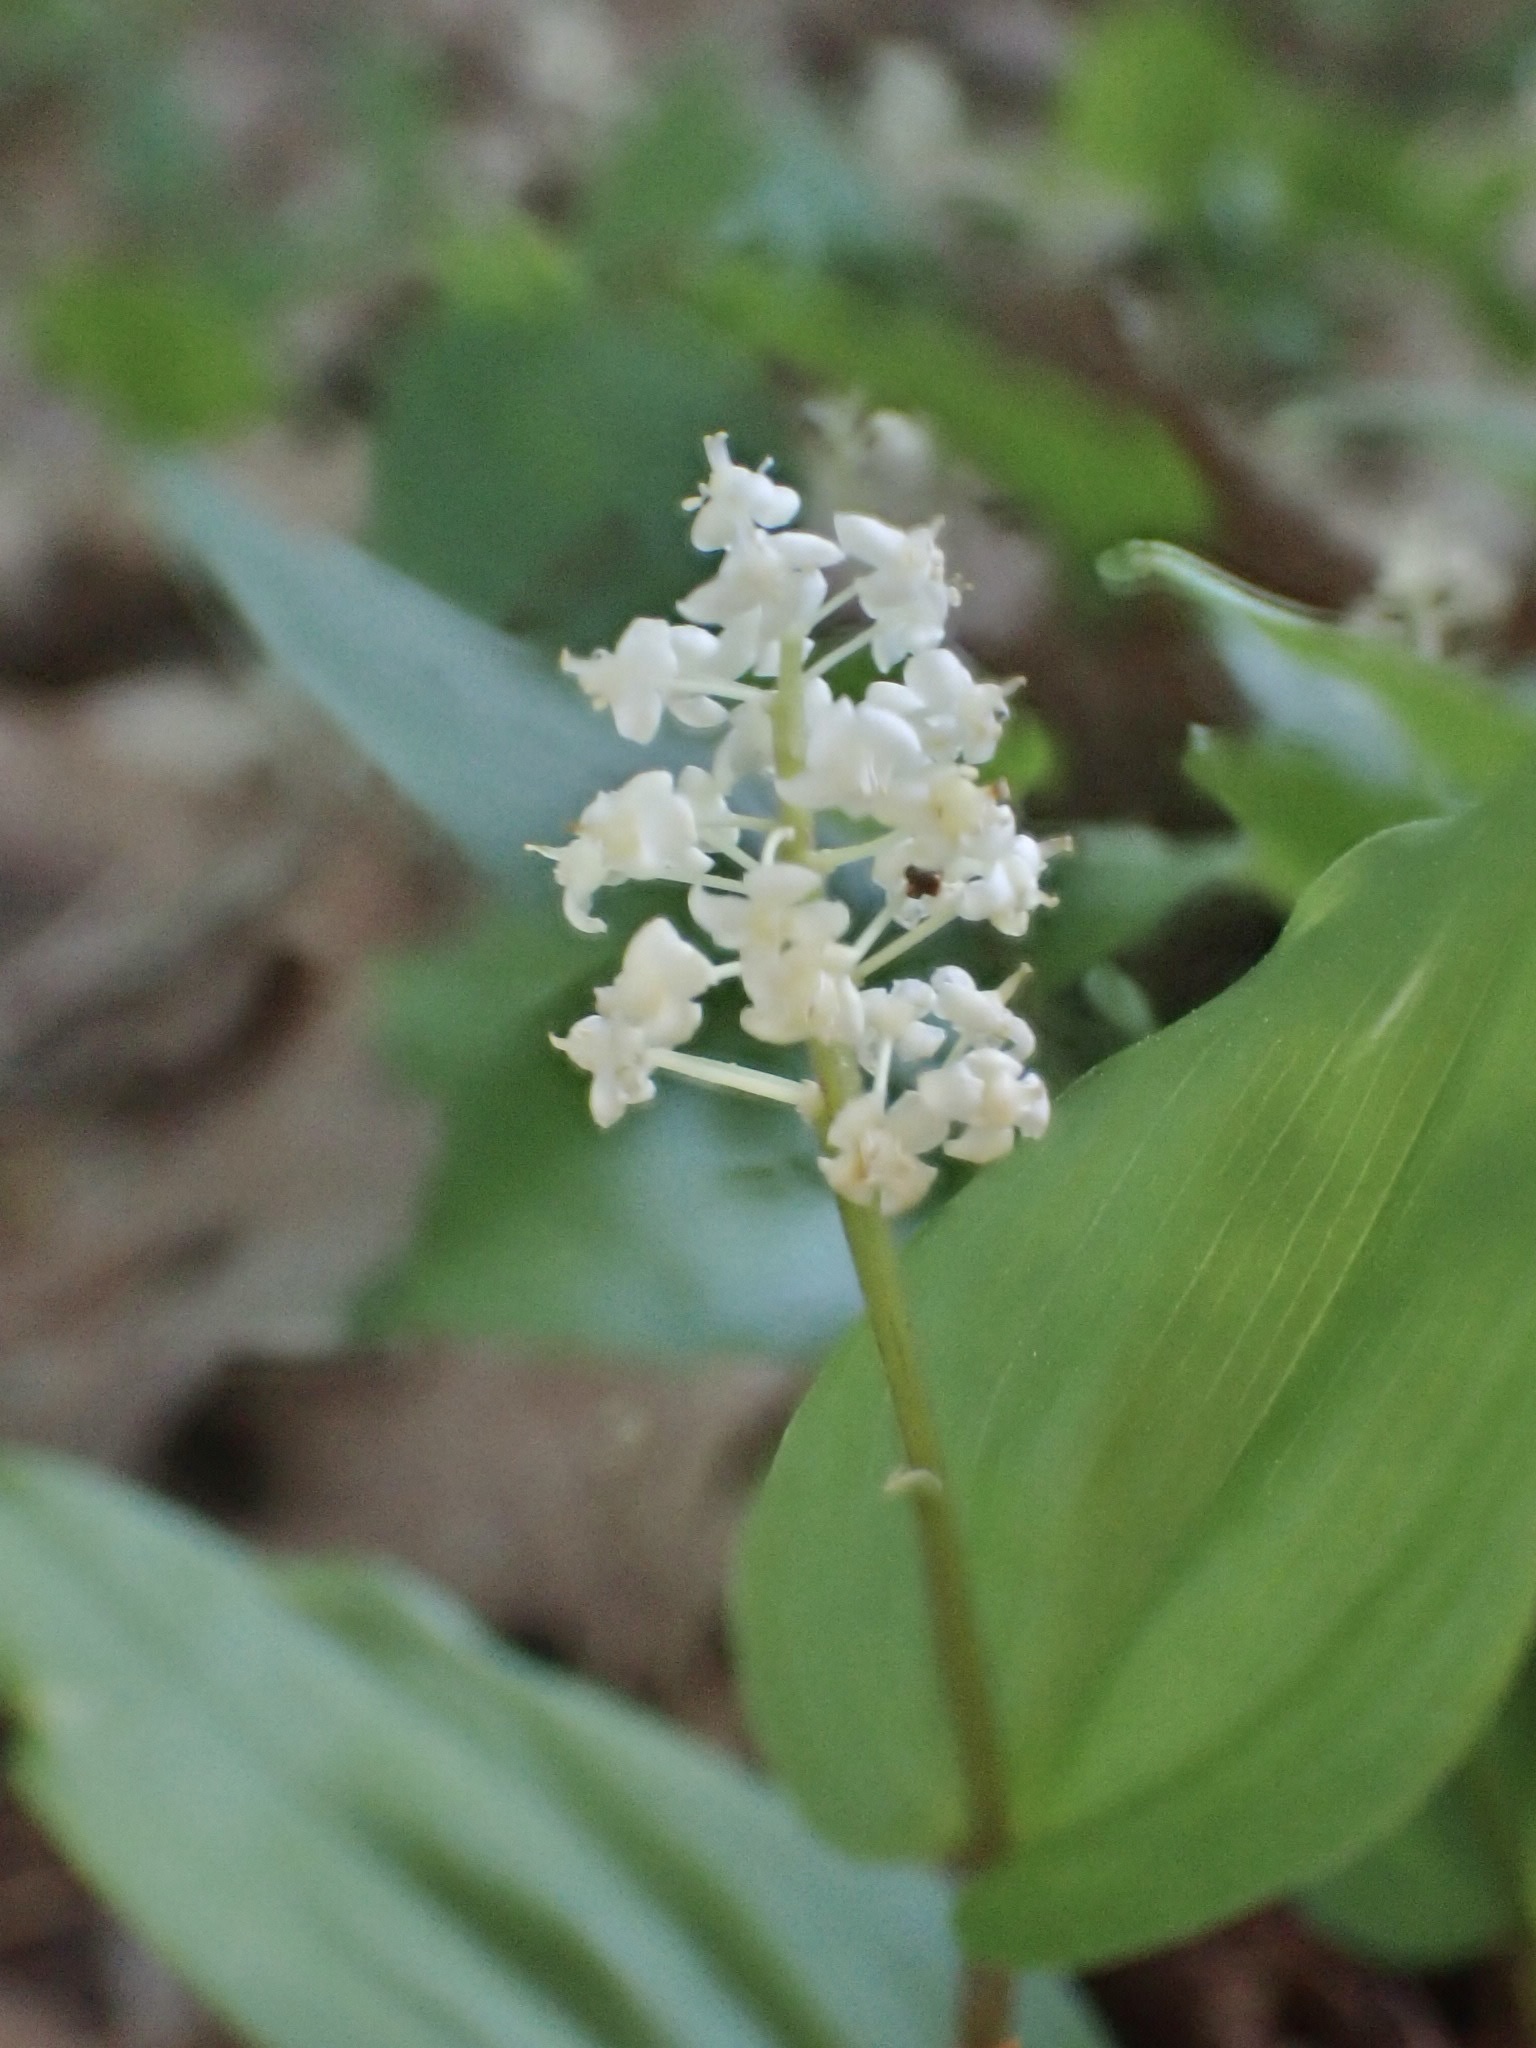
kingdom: Plantae
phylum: Tracheophyta
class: Liliopsida
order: Asparagales
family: Asparagaceae
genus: Maianthemum
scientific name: Maianthemum canadense
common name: False lily-of-the-valley
